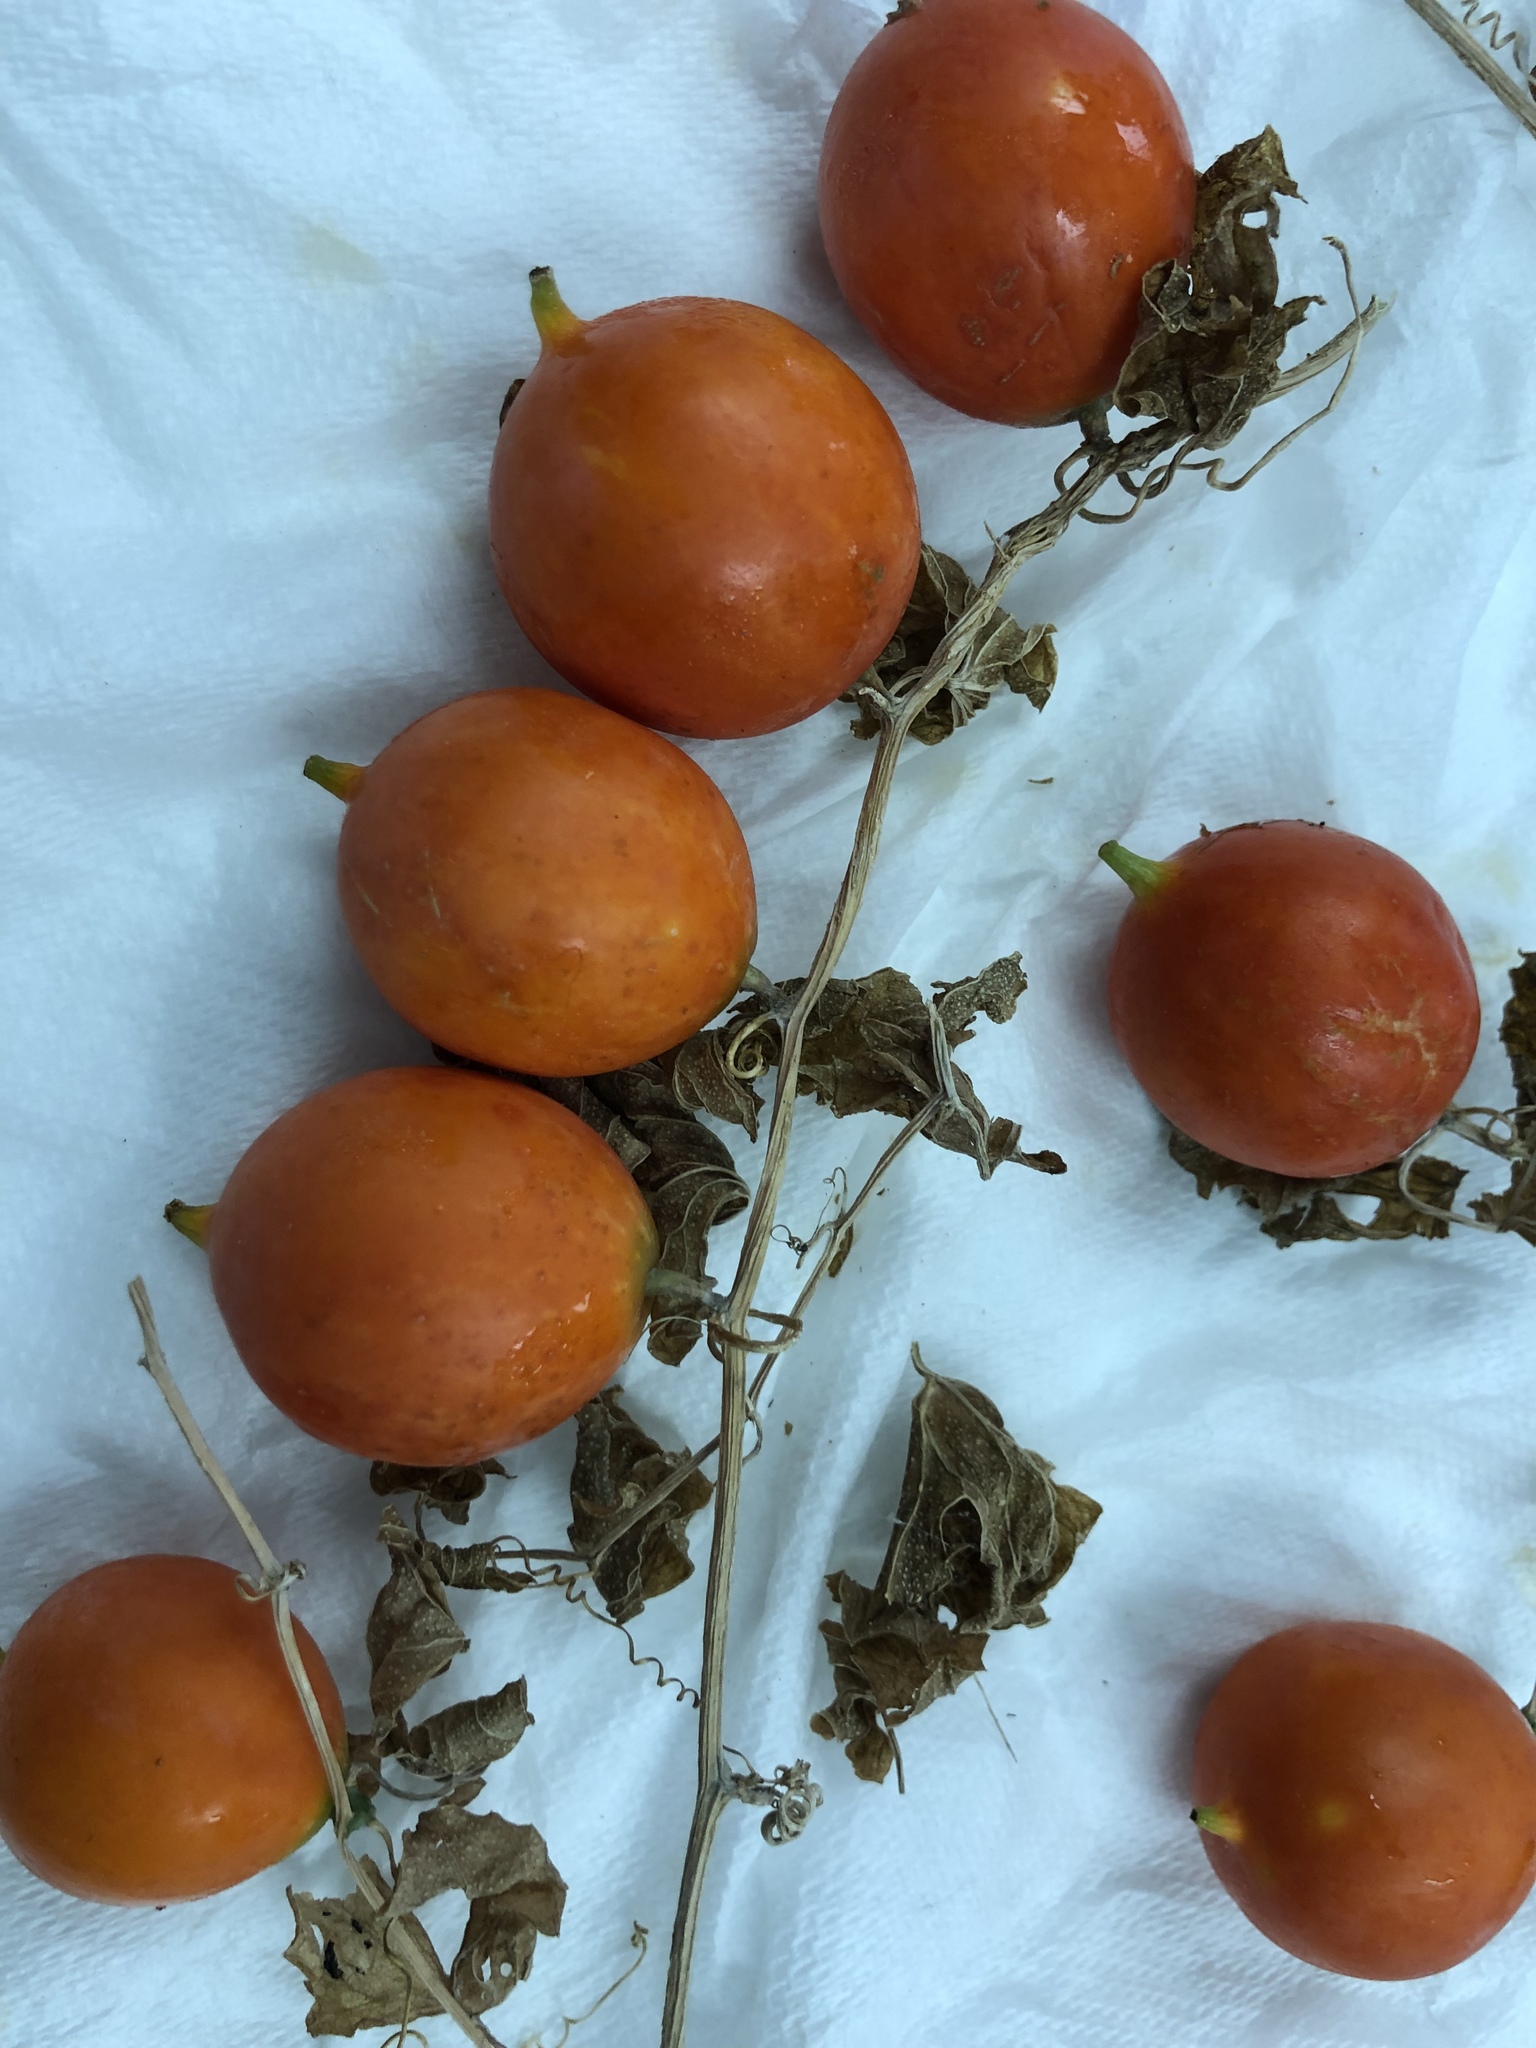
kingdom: Plantae
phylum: Tracheophyta
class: Magnoliopsida
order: Cucurbitales
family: Cucurbitaceae
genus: Ibervillea
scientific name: Ibervillea lindheimeri
